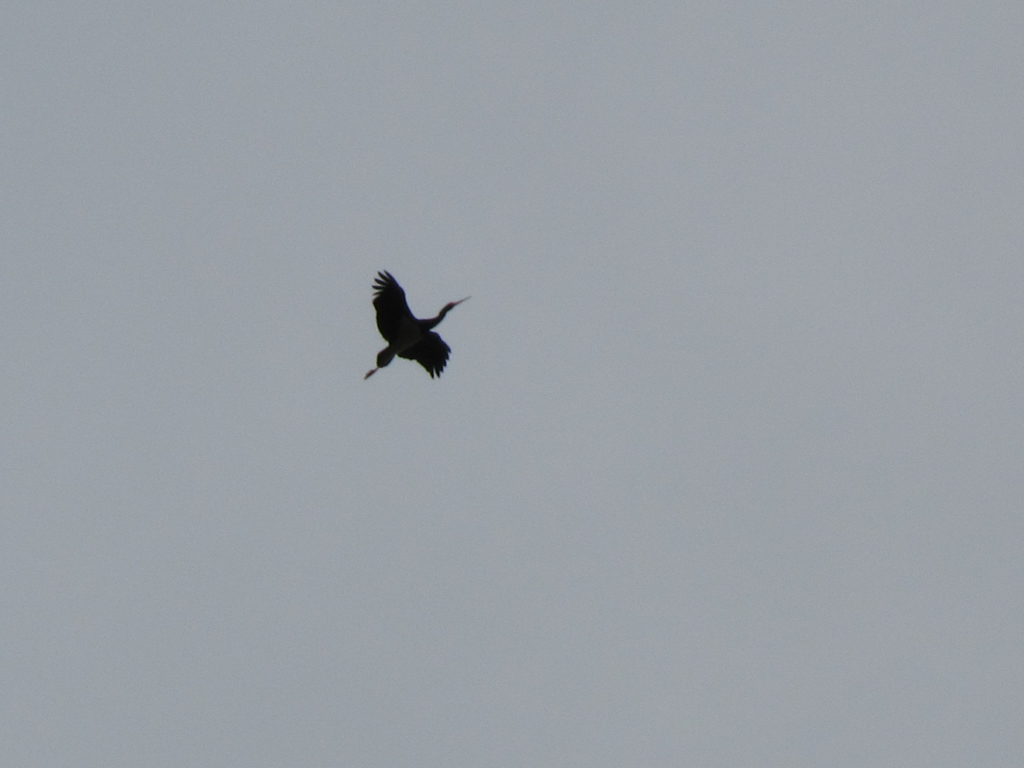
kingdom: Animalia
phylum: Chordata
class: Aves
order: Ciconiiformes
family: Ciconiidae
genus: Ciconia
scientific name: Ciconia nigra
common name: Black stork
